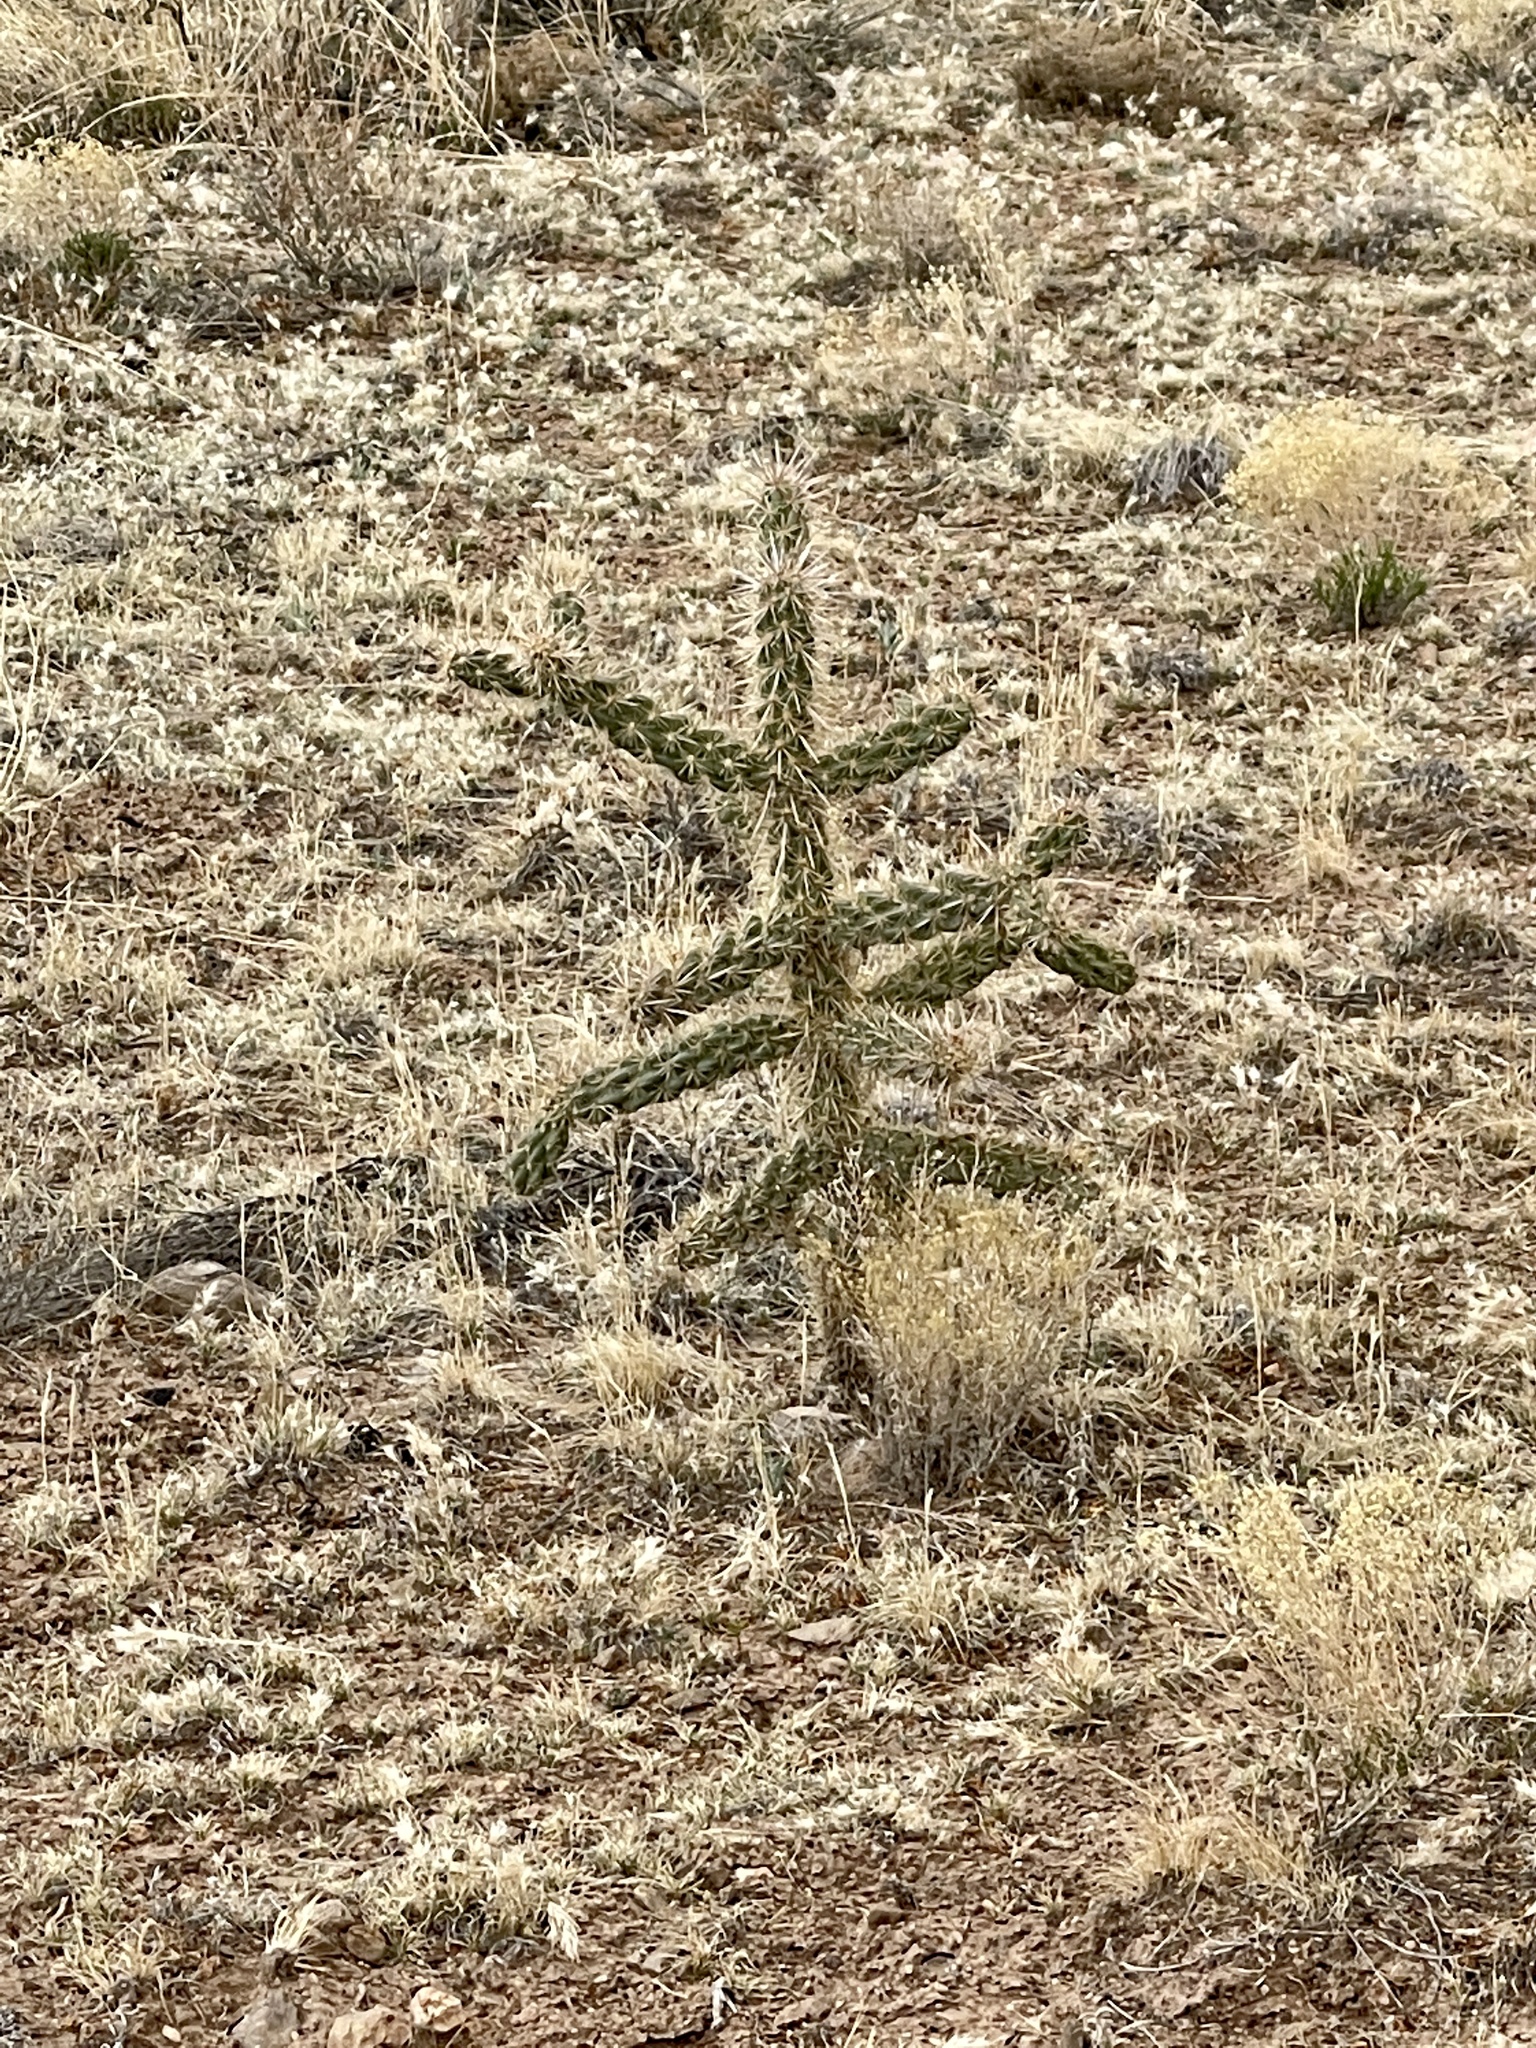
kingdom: Plantae
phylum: Tracheophyta
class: Magnoliopsida
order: Caryophyllales
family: Cactaceae
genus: Cylindropuntia
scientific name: Cylindropuntia imbricata
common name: Candelabrum cactus
